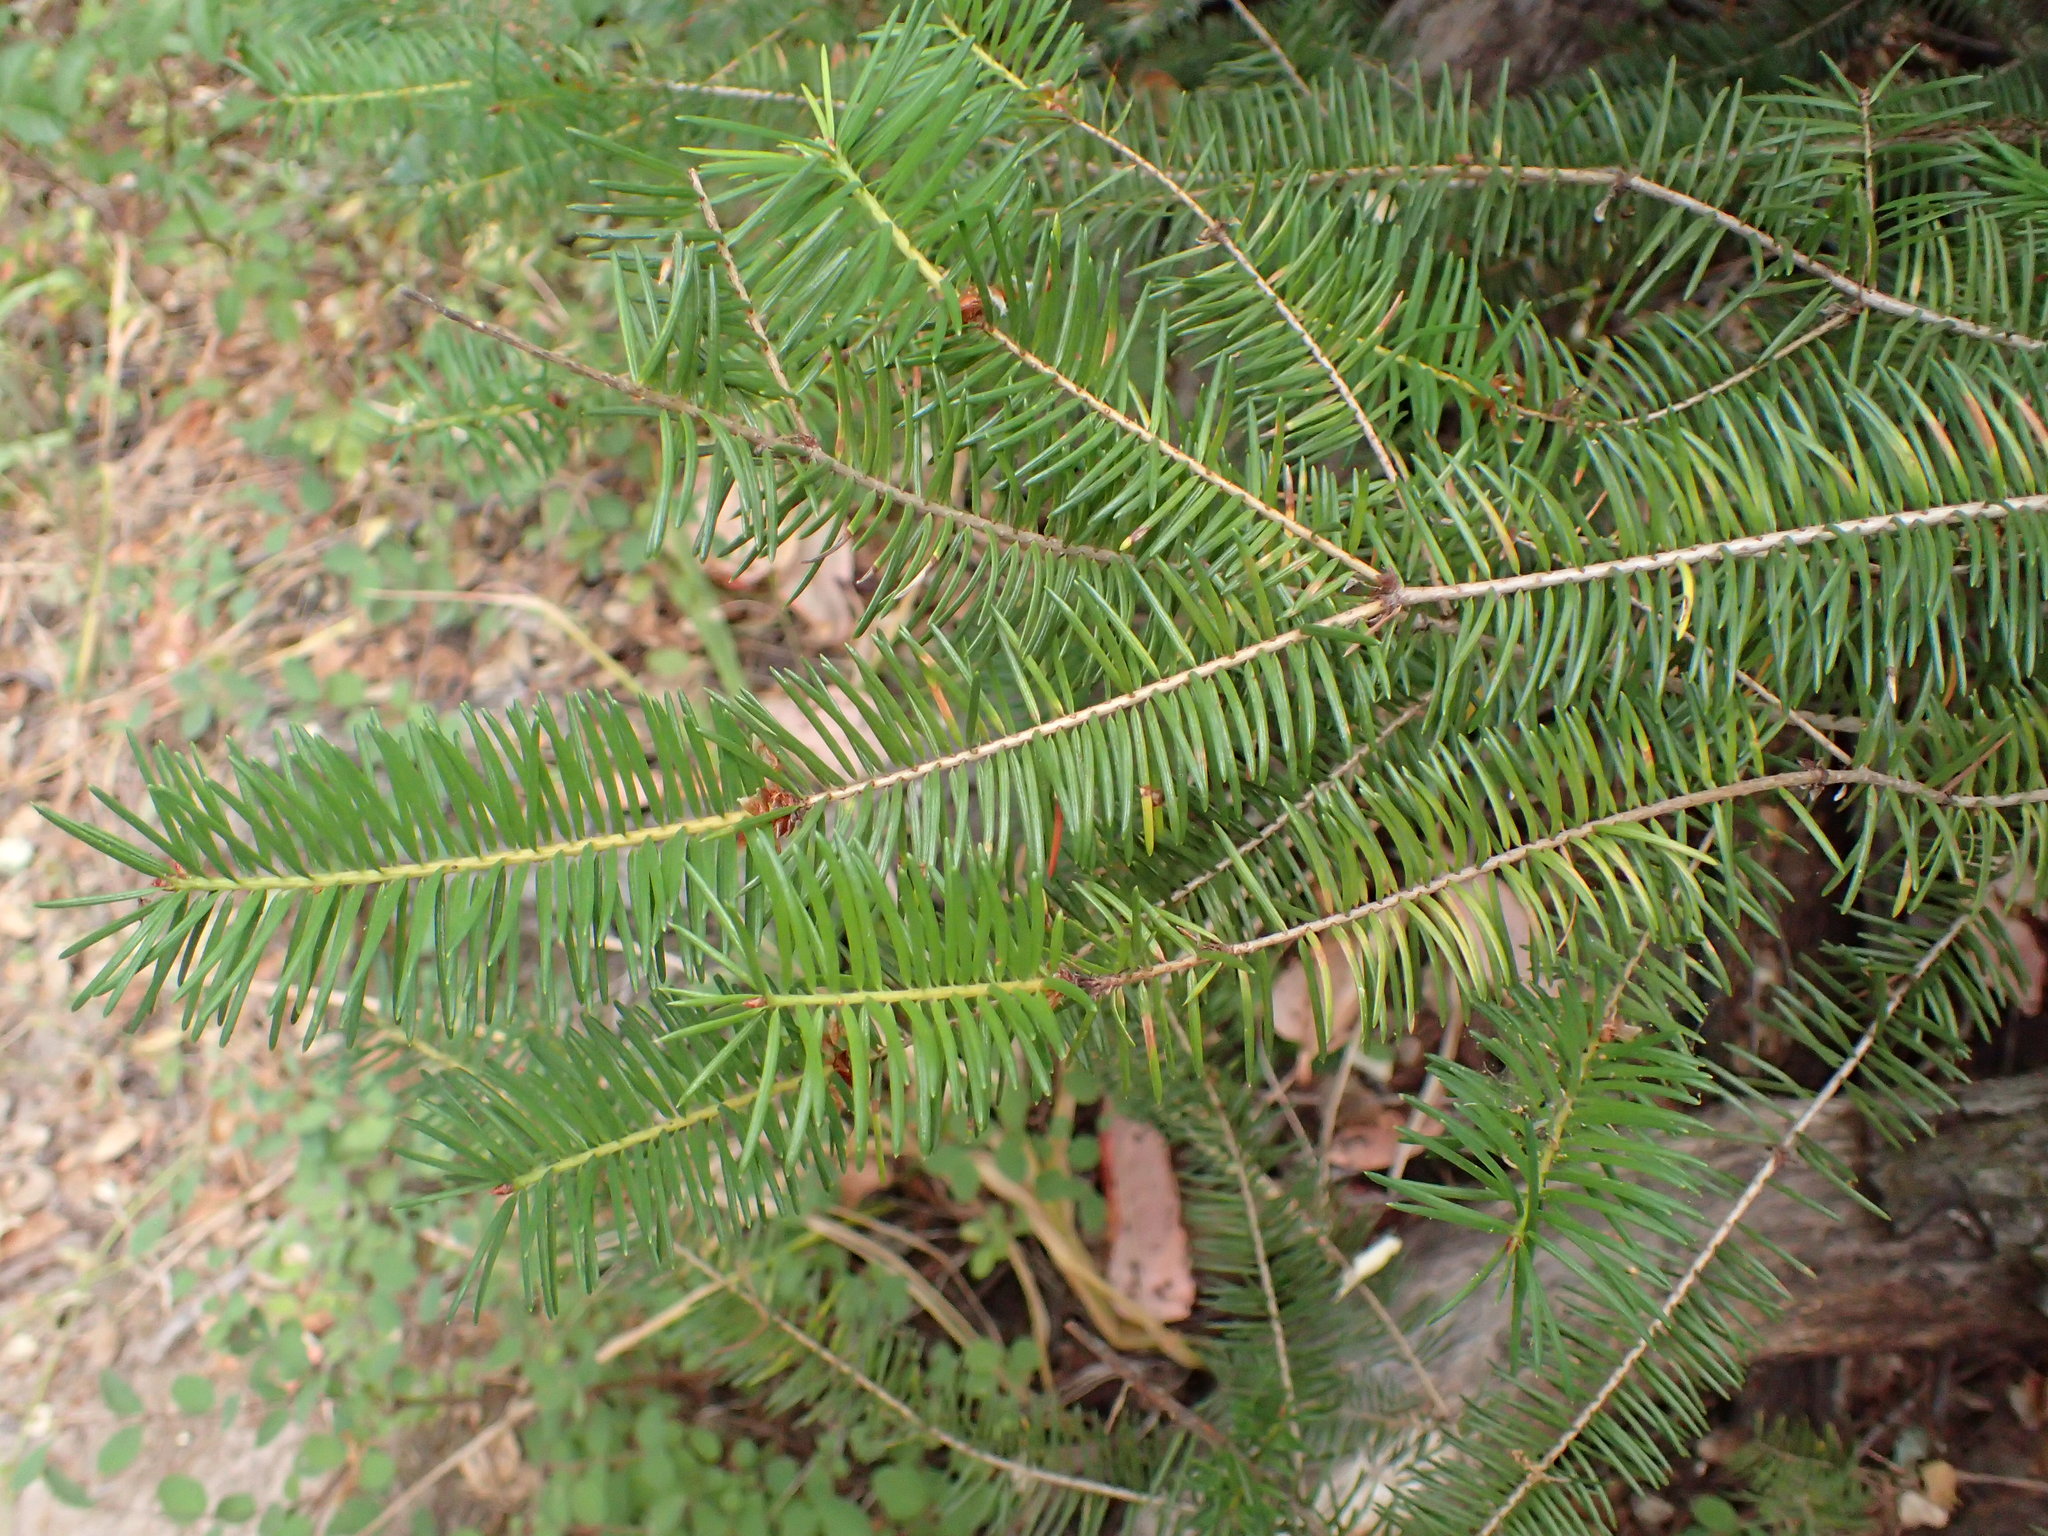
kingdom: Plantae
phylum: Tracheophyta
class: Pinopsida
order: Pinales
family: Pinaceae
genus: Pseudotsuga
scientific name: Pseudotsuga menziesii
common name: Douglas fir
